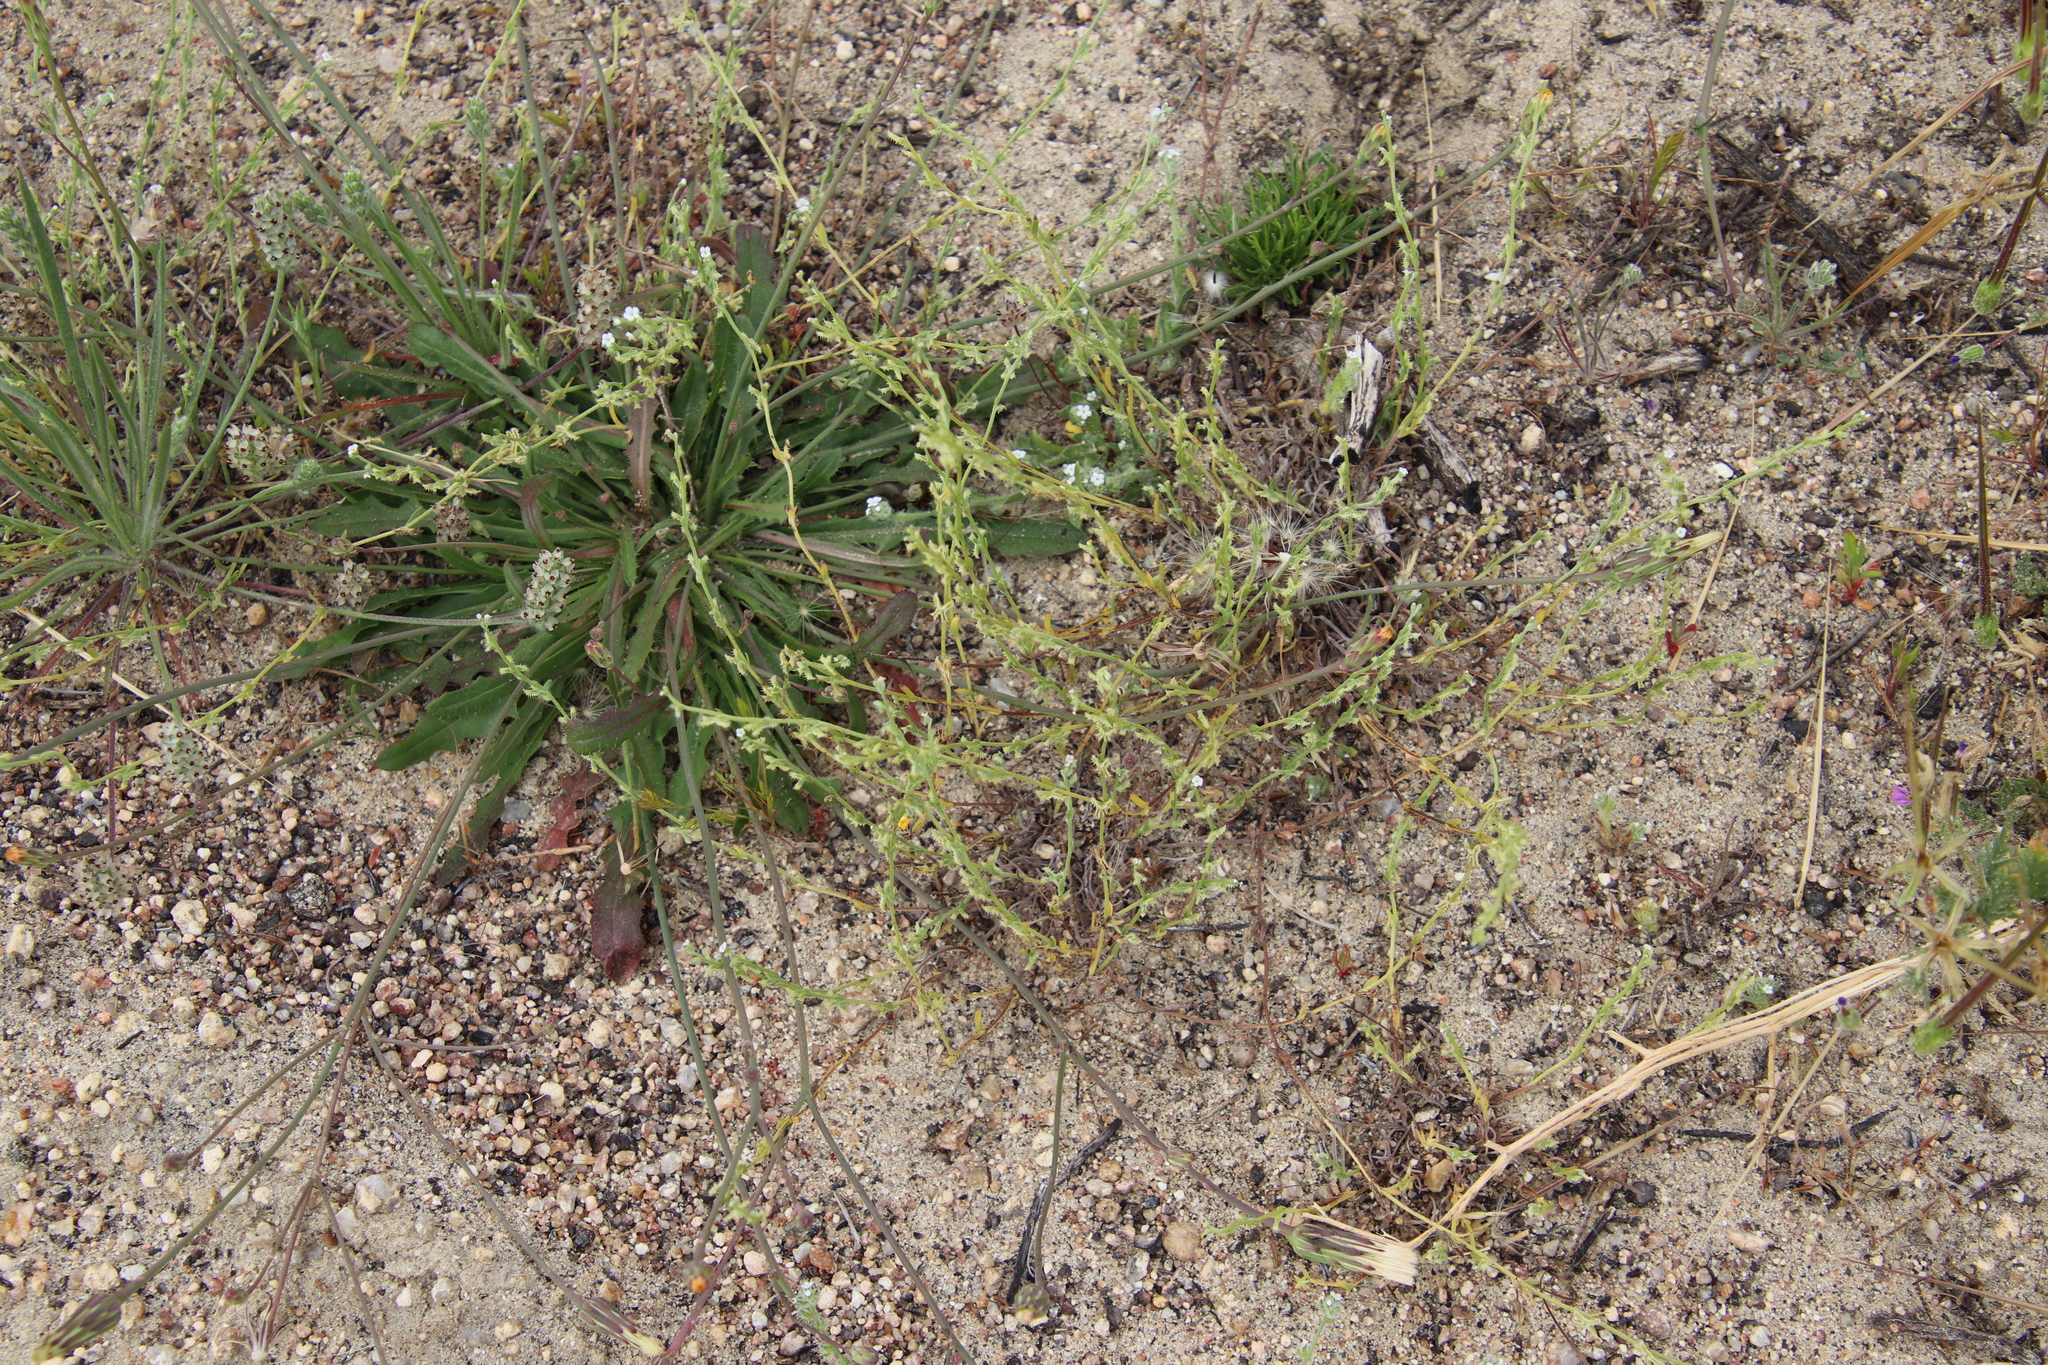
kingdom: Plantae
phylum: Tracheophyta
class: Magnoliopsida
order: Boraginales
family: Boraginaceae
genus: Pectocarya
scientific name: Pectocarya linearis
